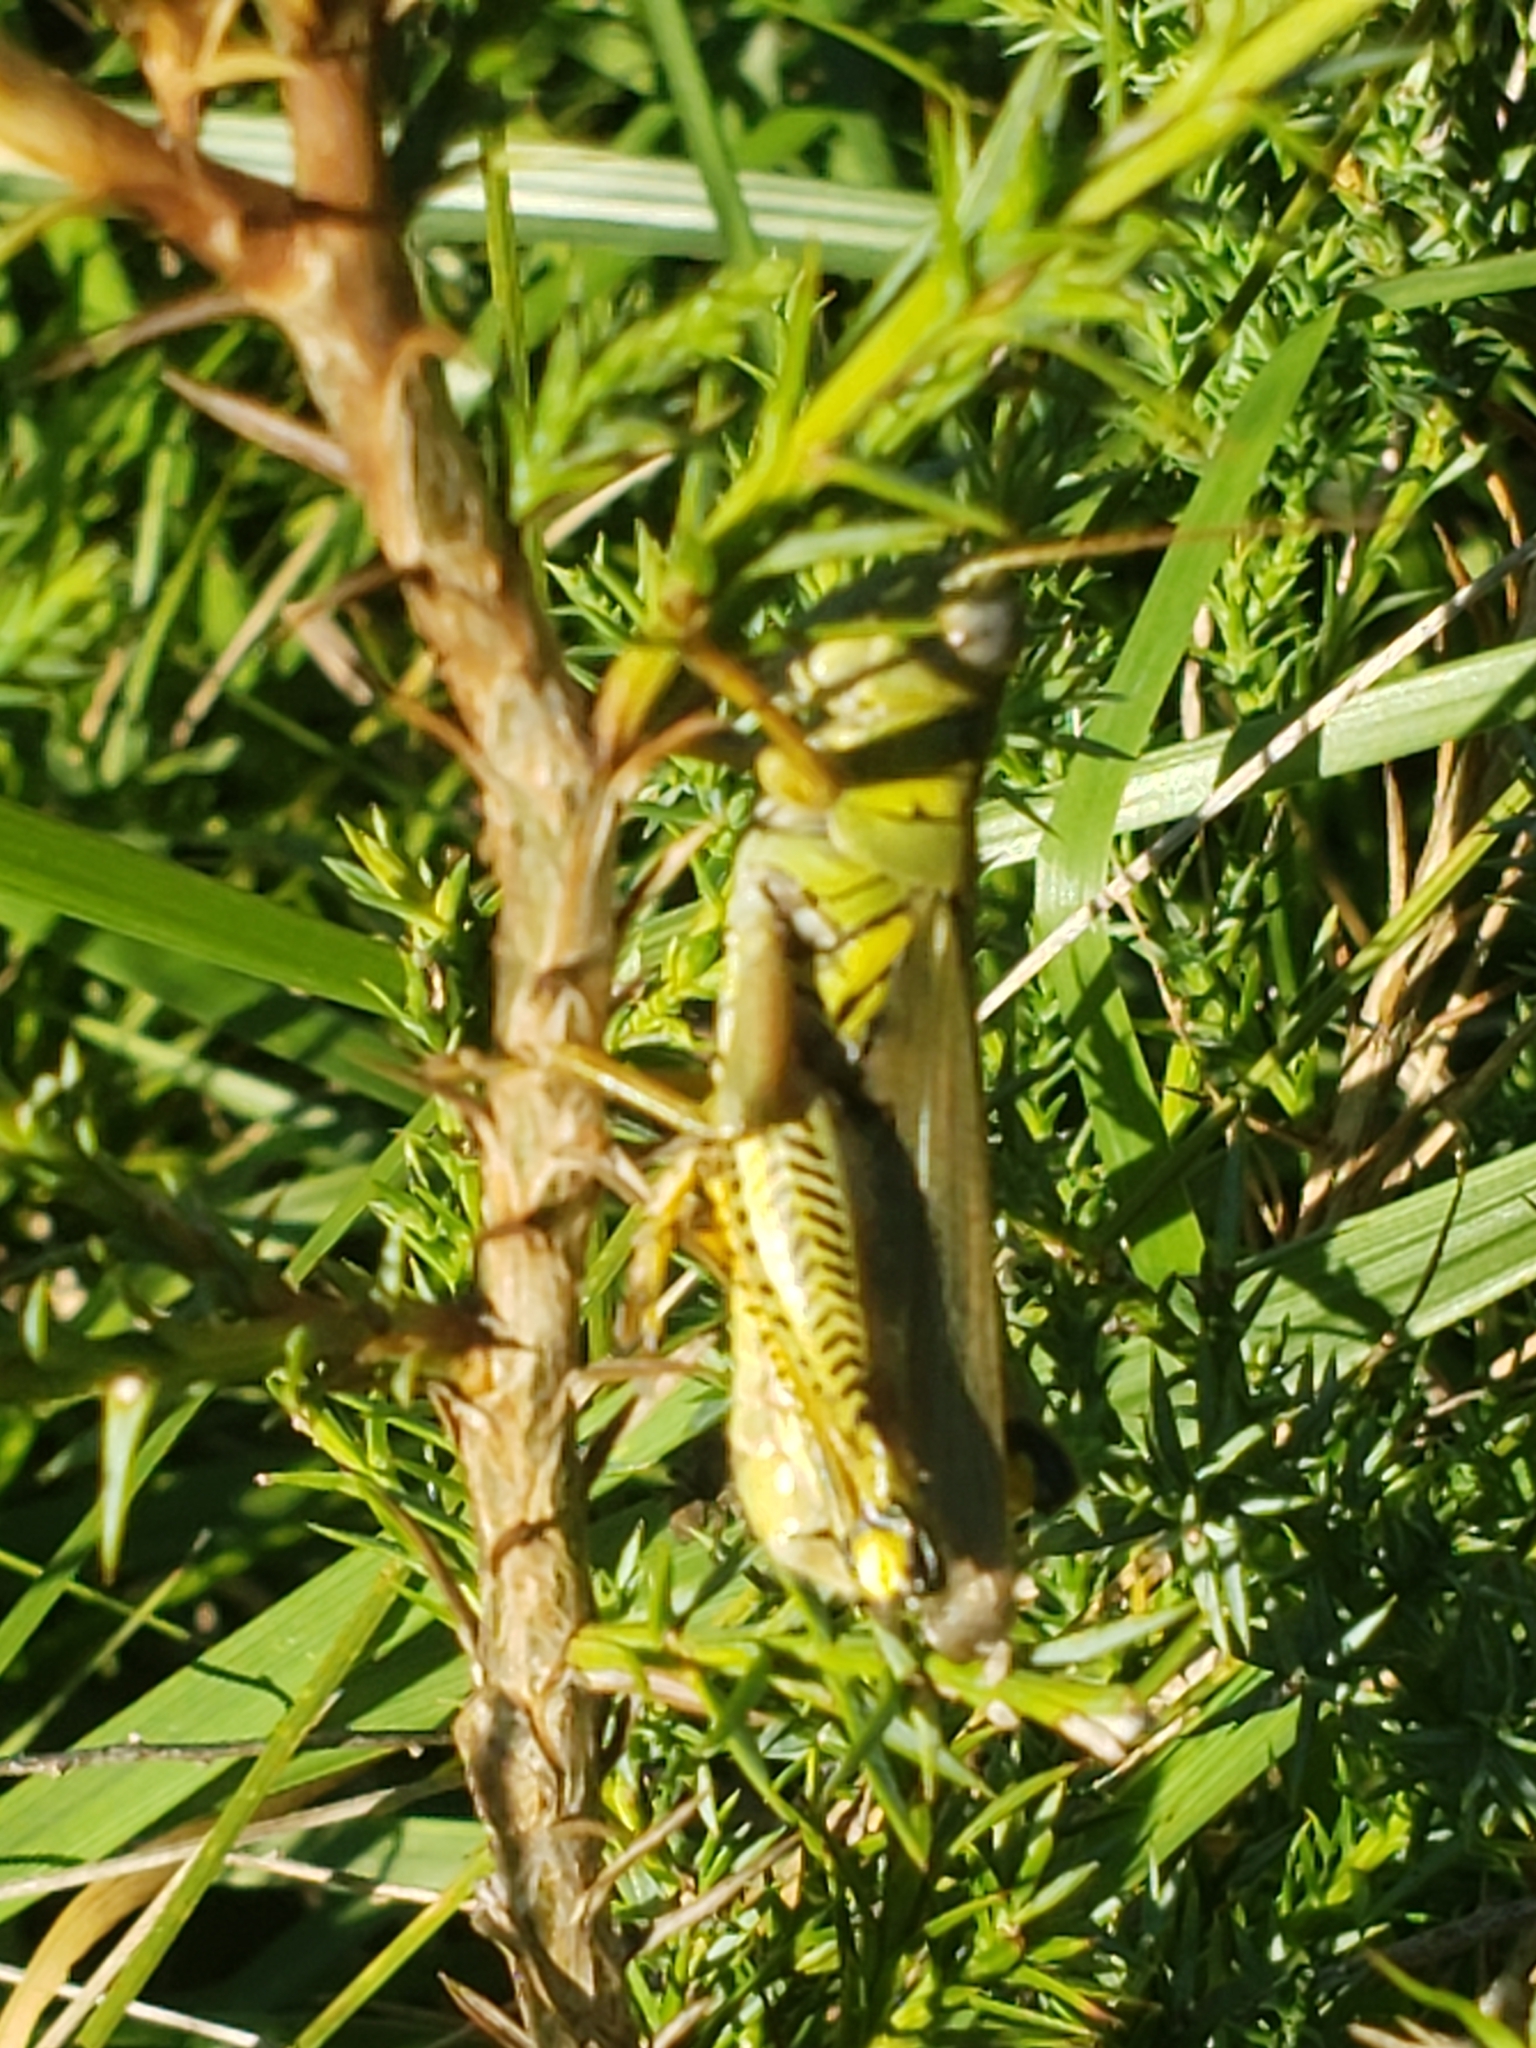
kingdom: Animalia
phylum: Arthropoda
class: Insecta
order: Orthoptera
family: Acrididae
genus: Melanoplus
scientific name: Melanoplus differentialis
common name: Differential grasshopper
